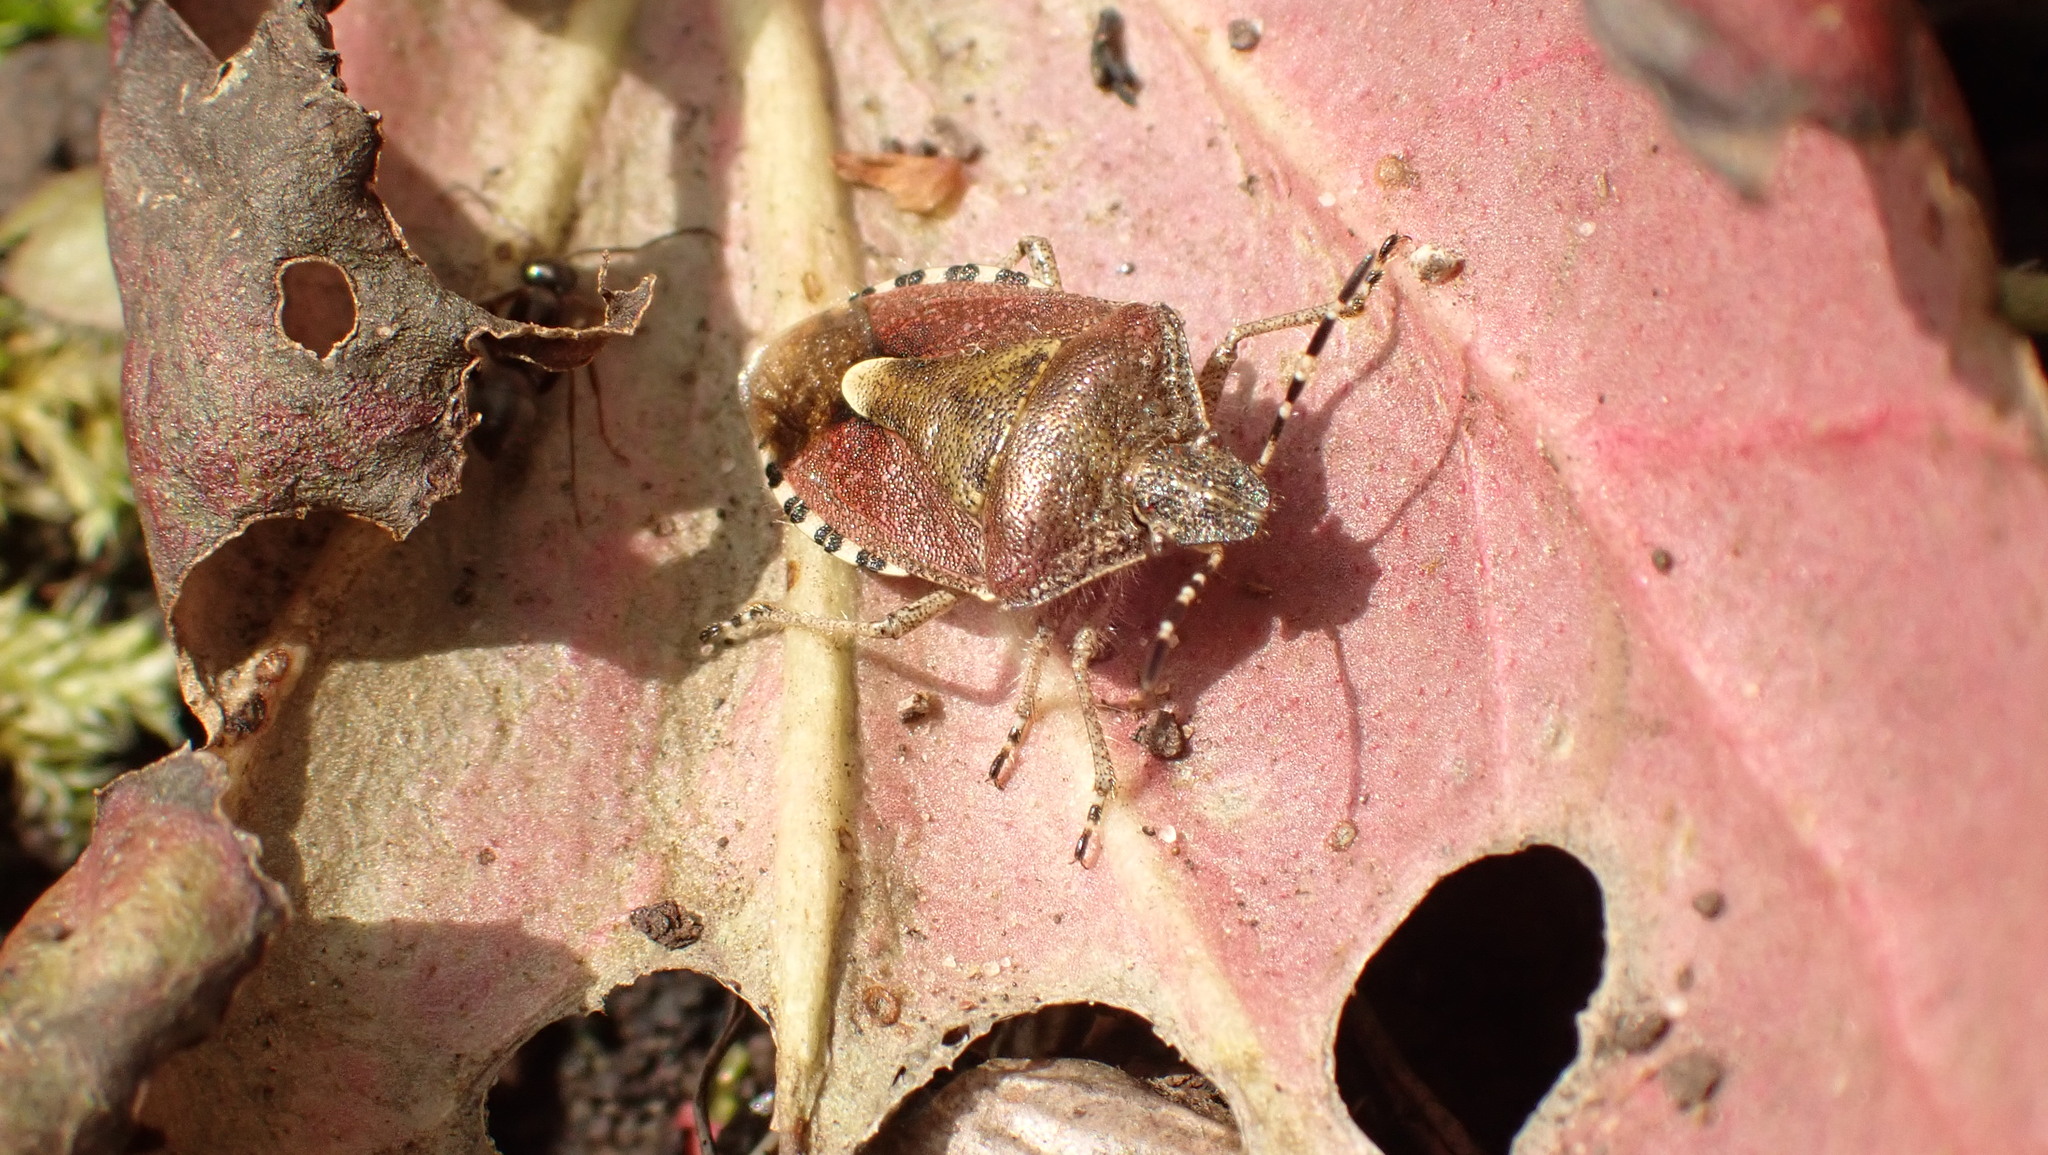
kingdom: Animalia
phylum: Arthropoda
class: Insecta
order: Hemiptera
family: Pentatomidae
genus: Dolycoris
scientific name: Dolycoris baccarum
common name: Sloe bug
